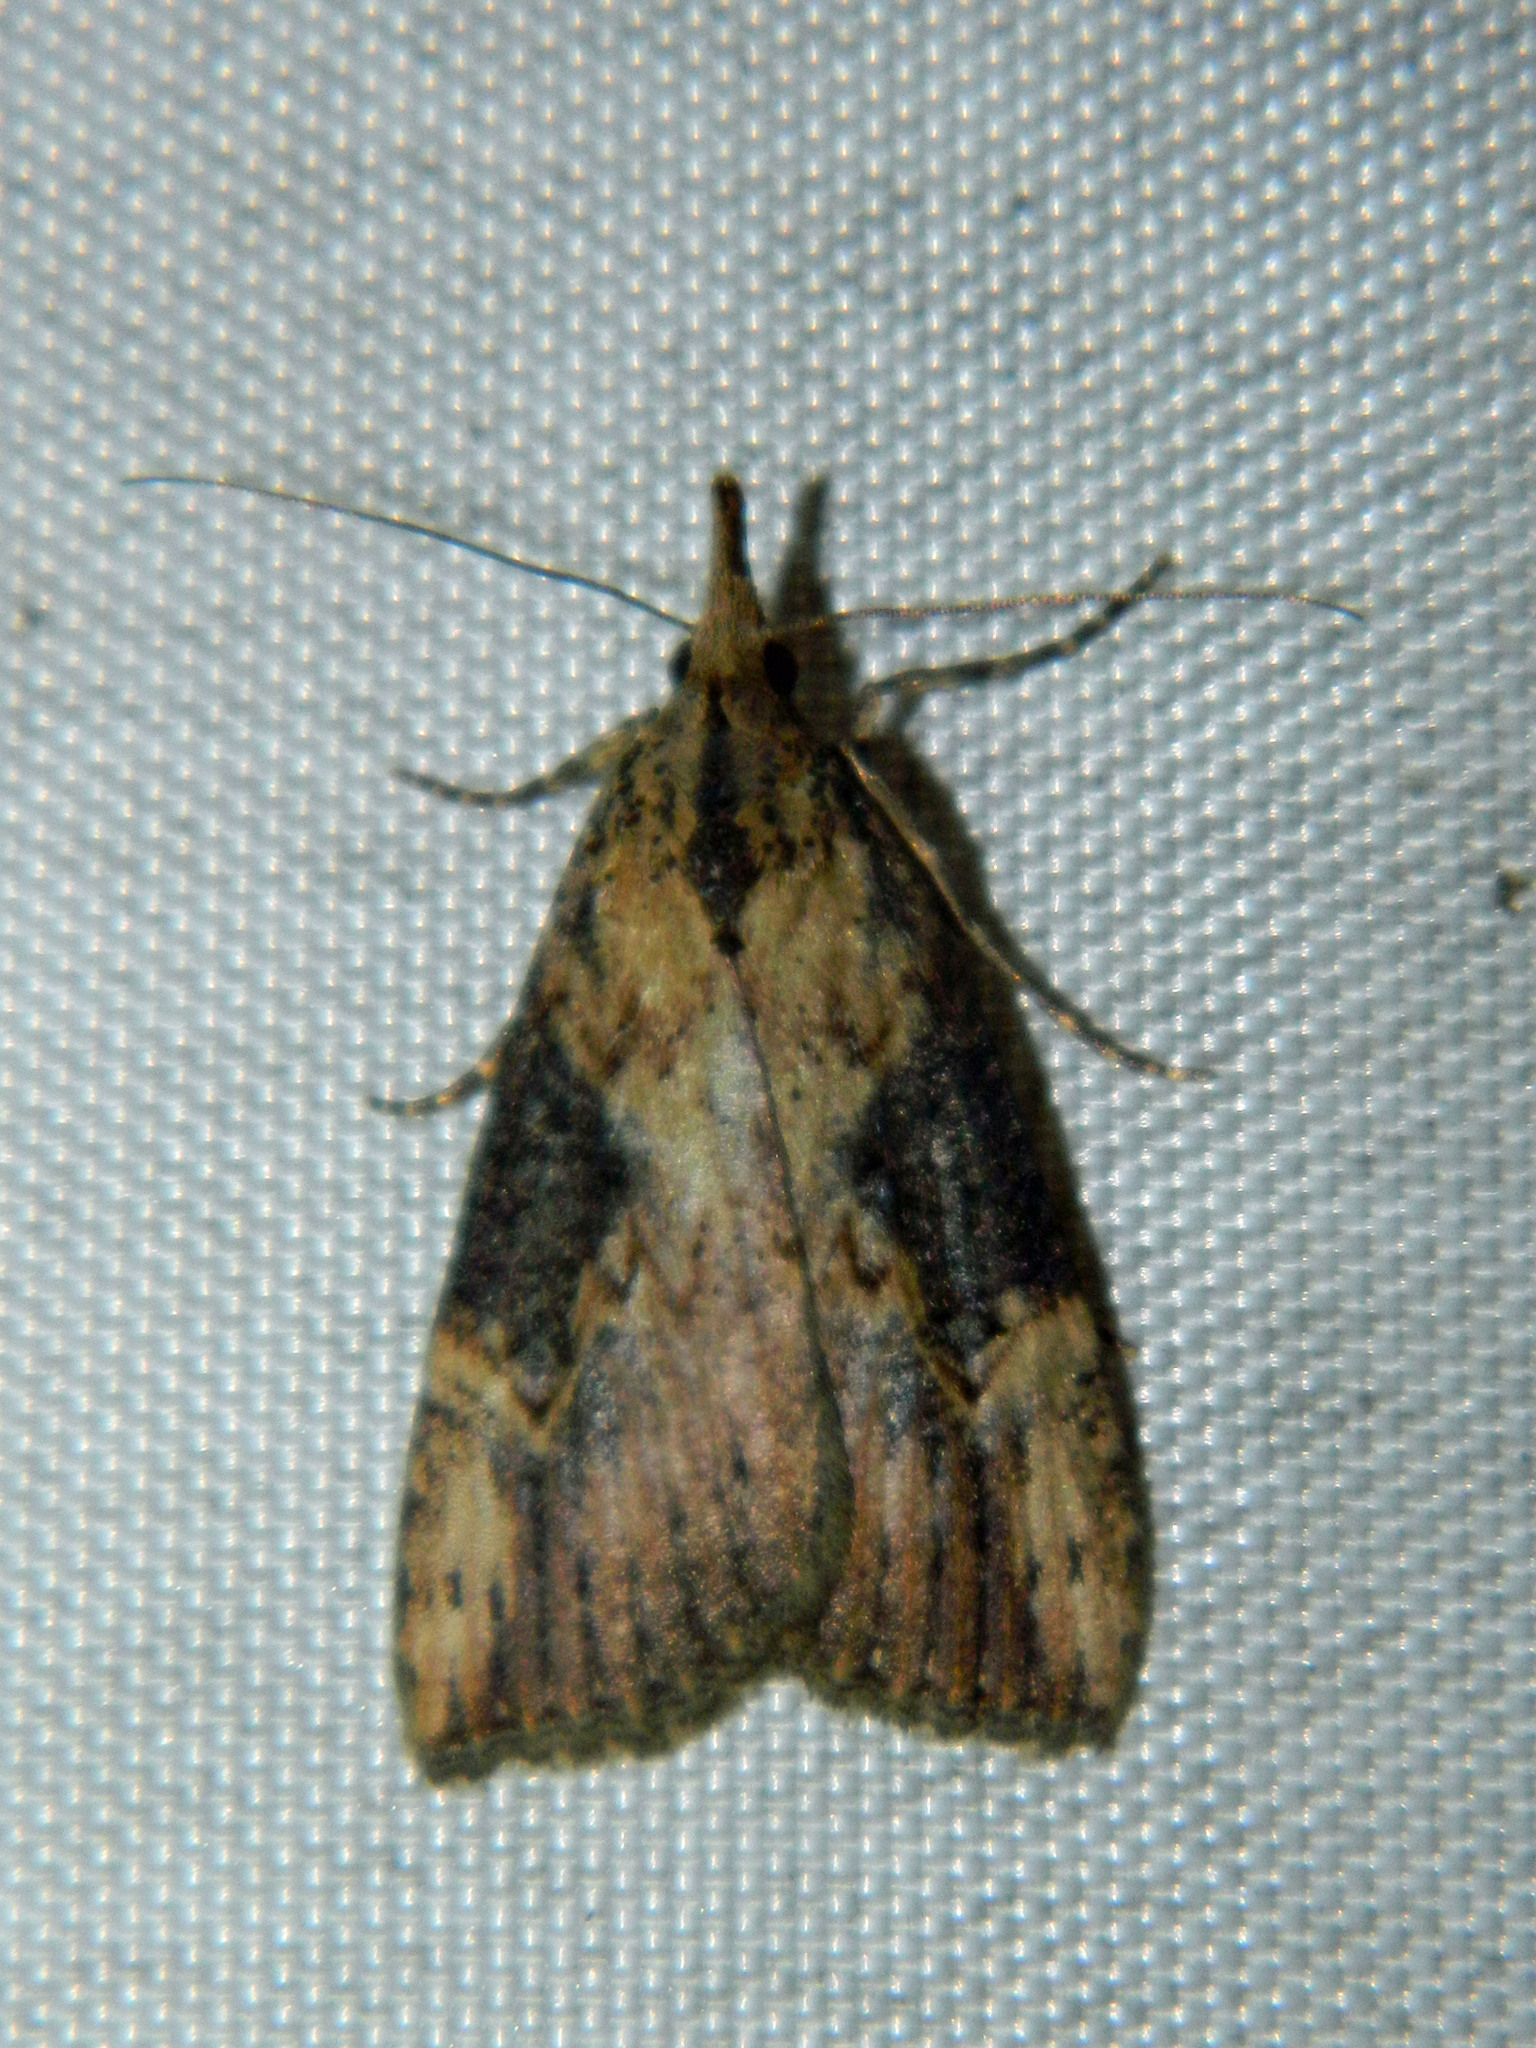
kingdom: Animalia
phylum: Arthropoda
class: Insecta
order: Lepidoptera
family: Erebidae
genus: Hypena
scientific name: Hypena humuli
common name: Hop vine snout
